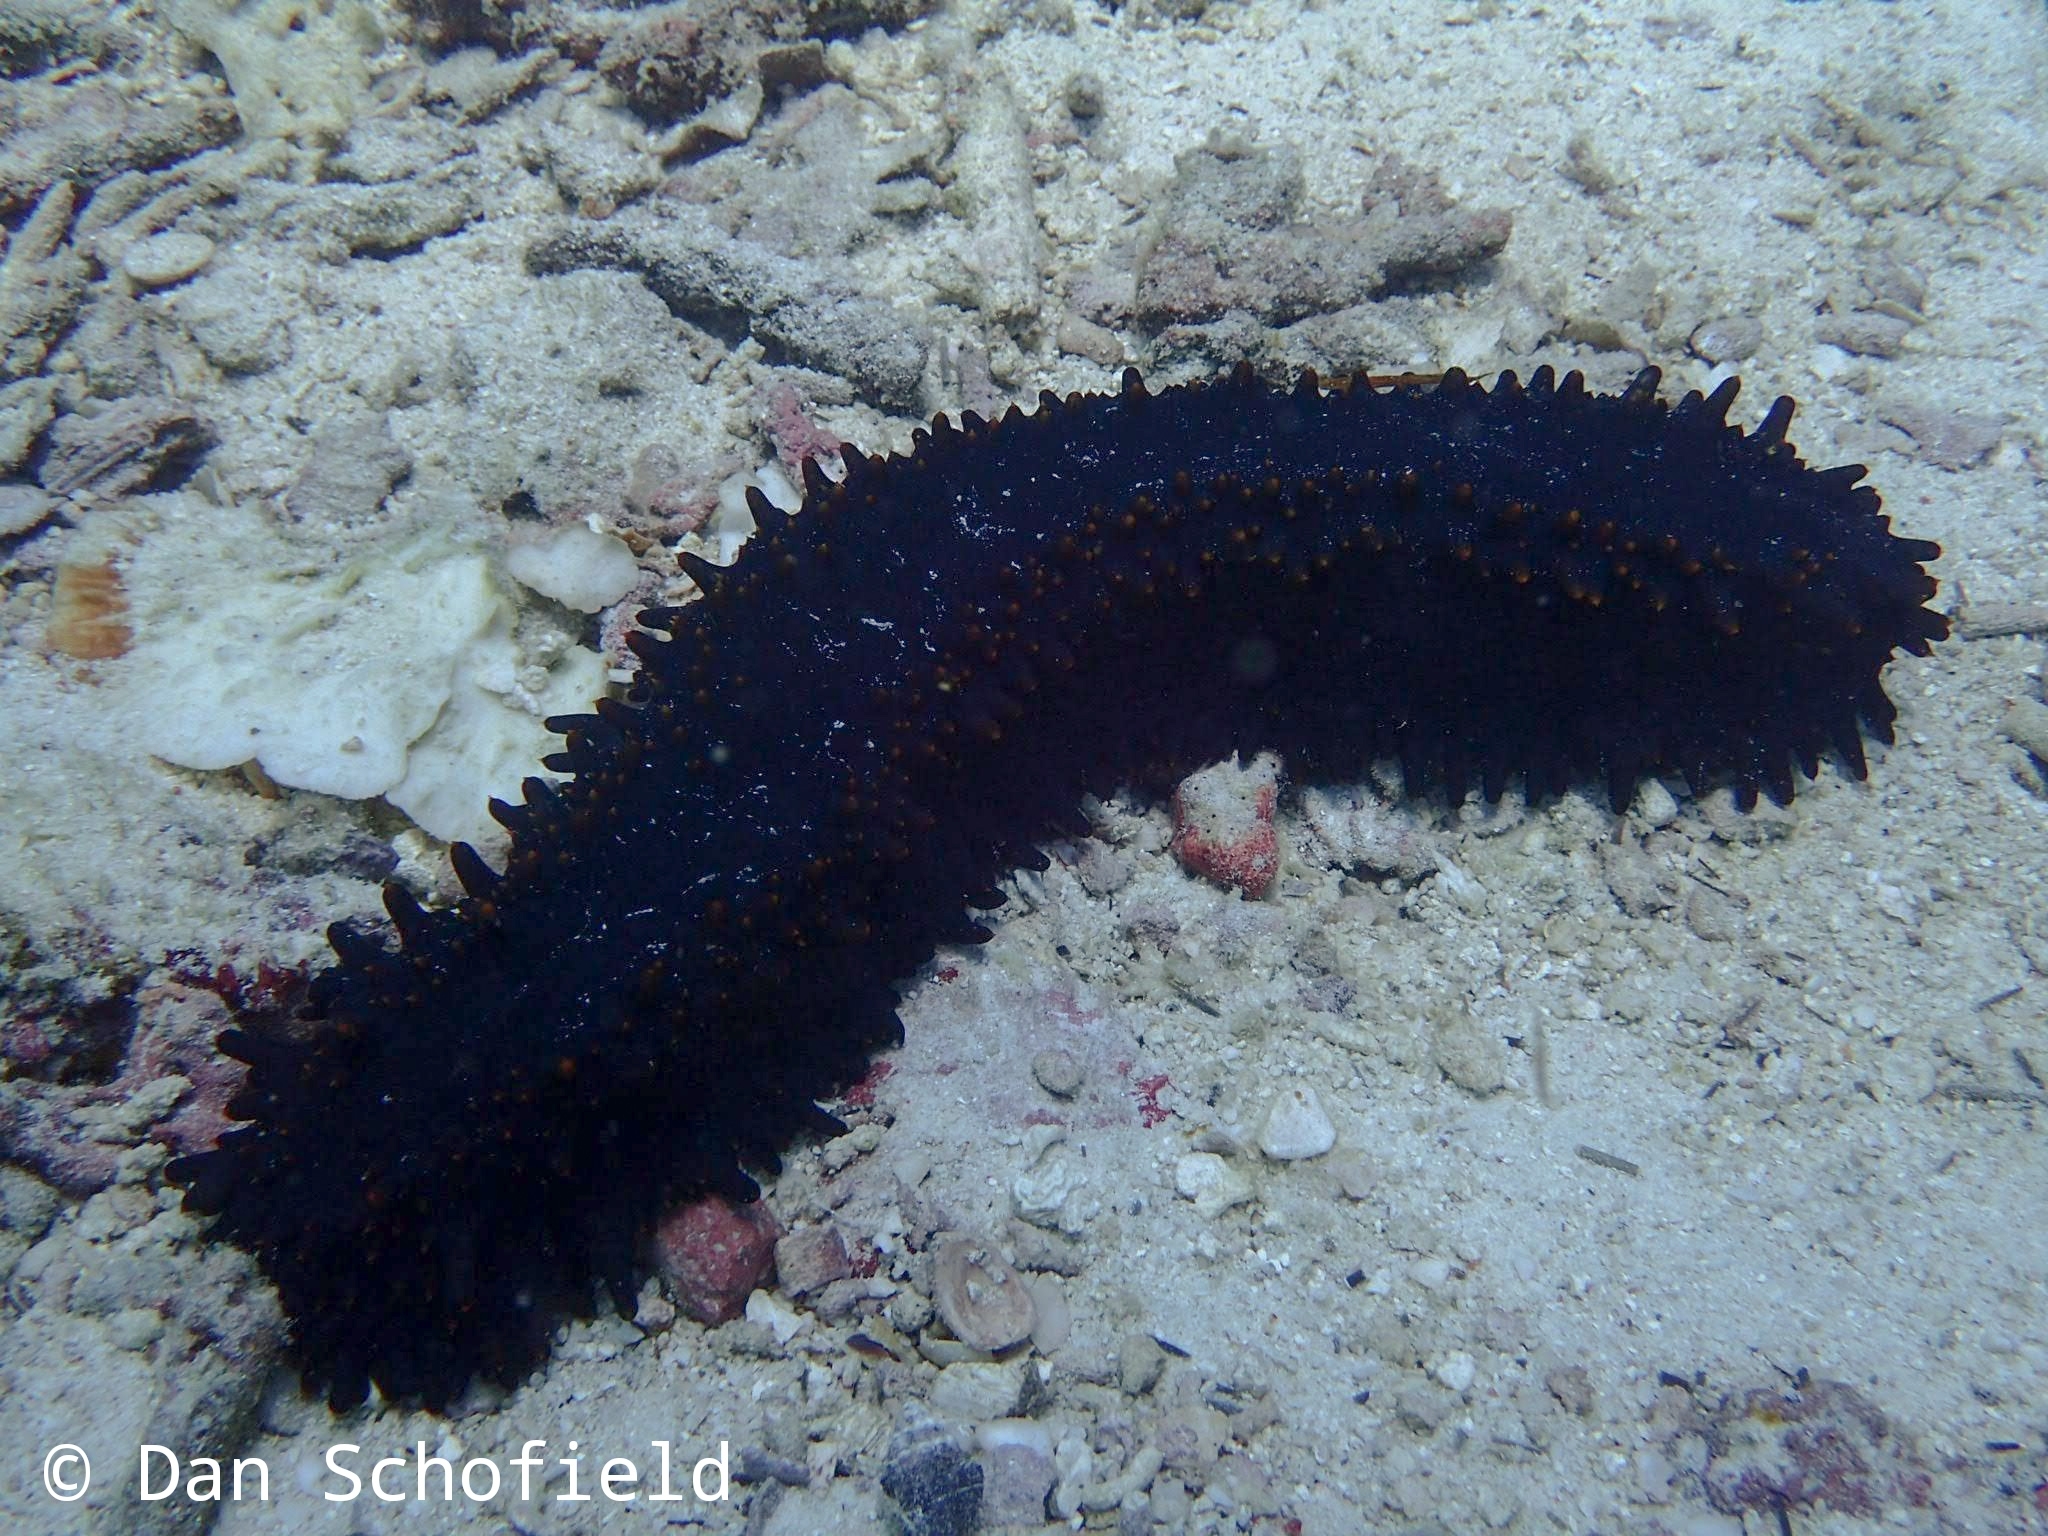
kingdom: Animalia
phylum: Echinodermata
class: Holothuroidea
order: Synallactida
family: Stichopodidae
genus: Stichopus
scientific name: Stichopus chloronotus
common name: Greenfish
